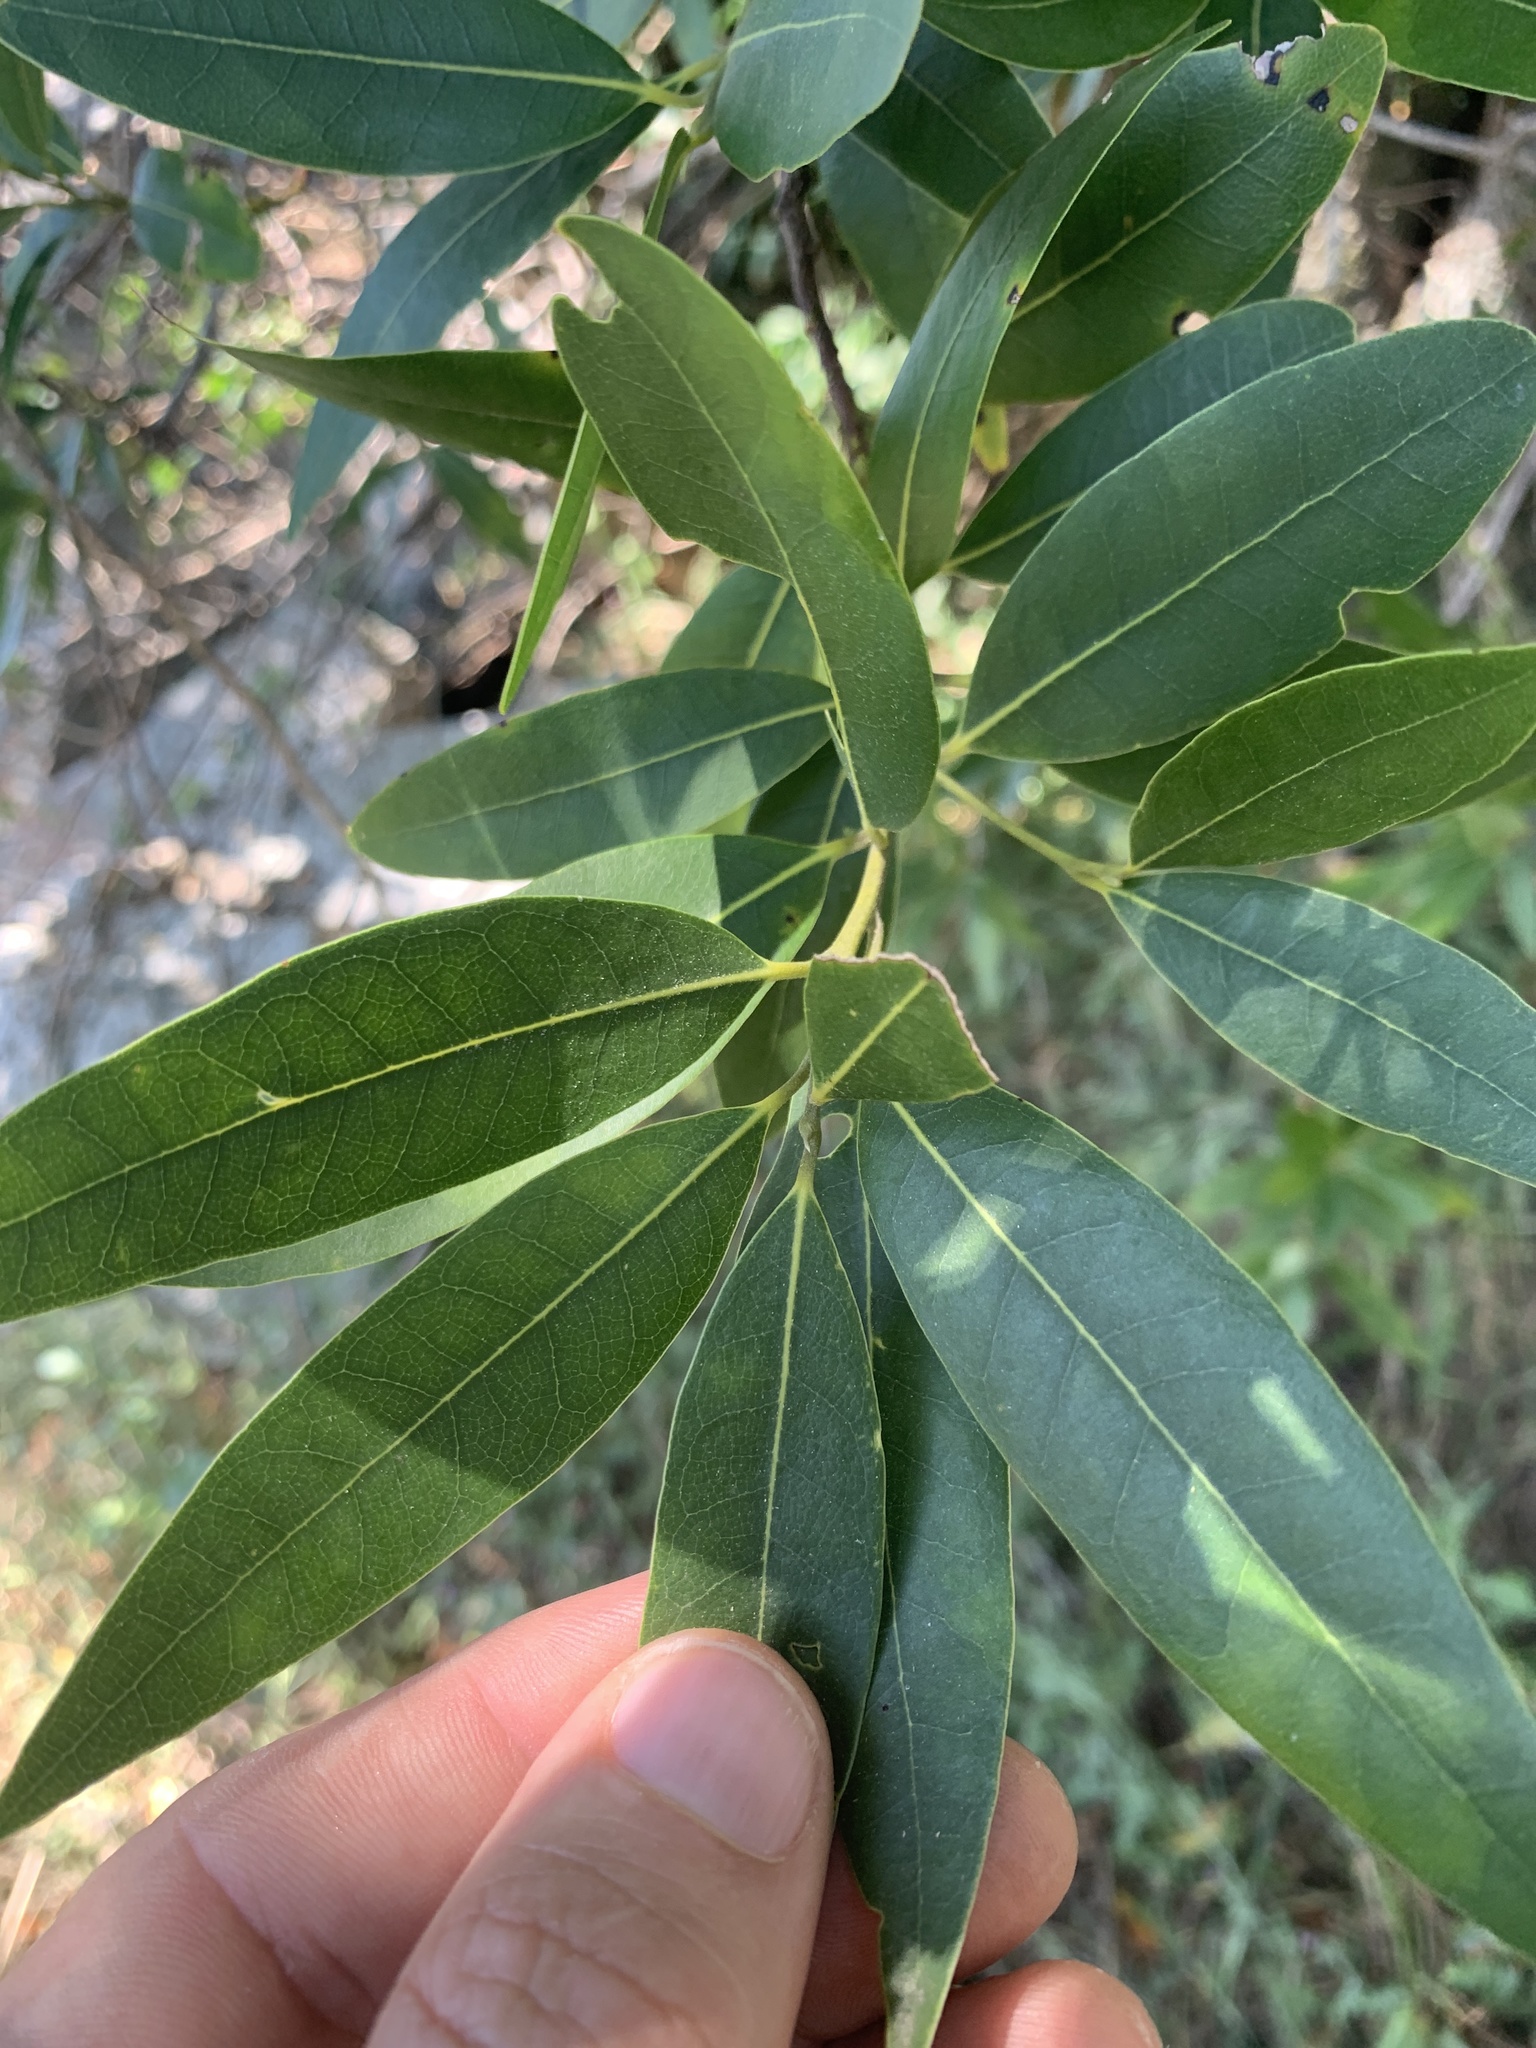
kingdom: Plantae
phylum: Tracheophyta
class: Magnoliopsida
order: Laurales
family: Lauraceae
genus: Umbellularia
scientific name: Umbellularia californica
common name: California bay
